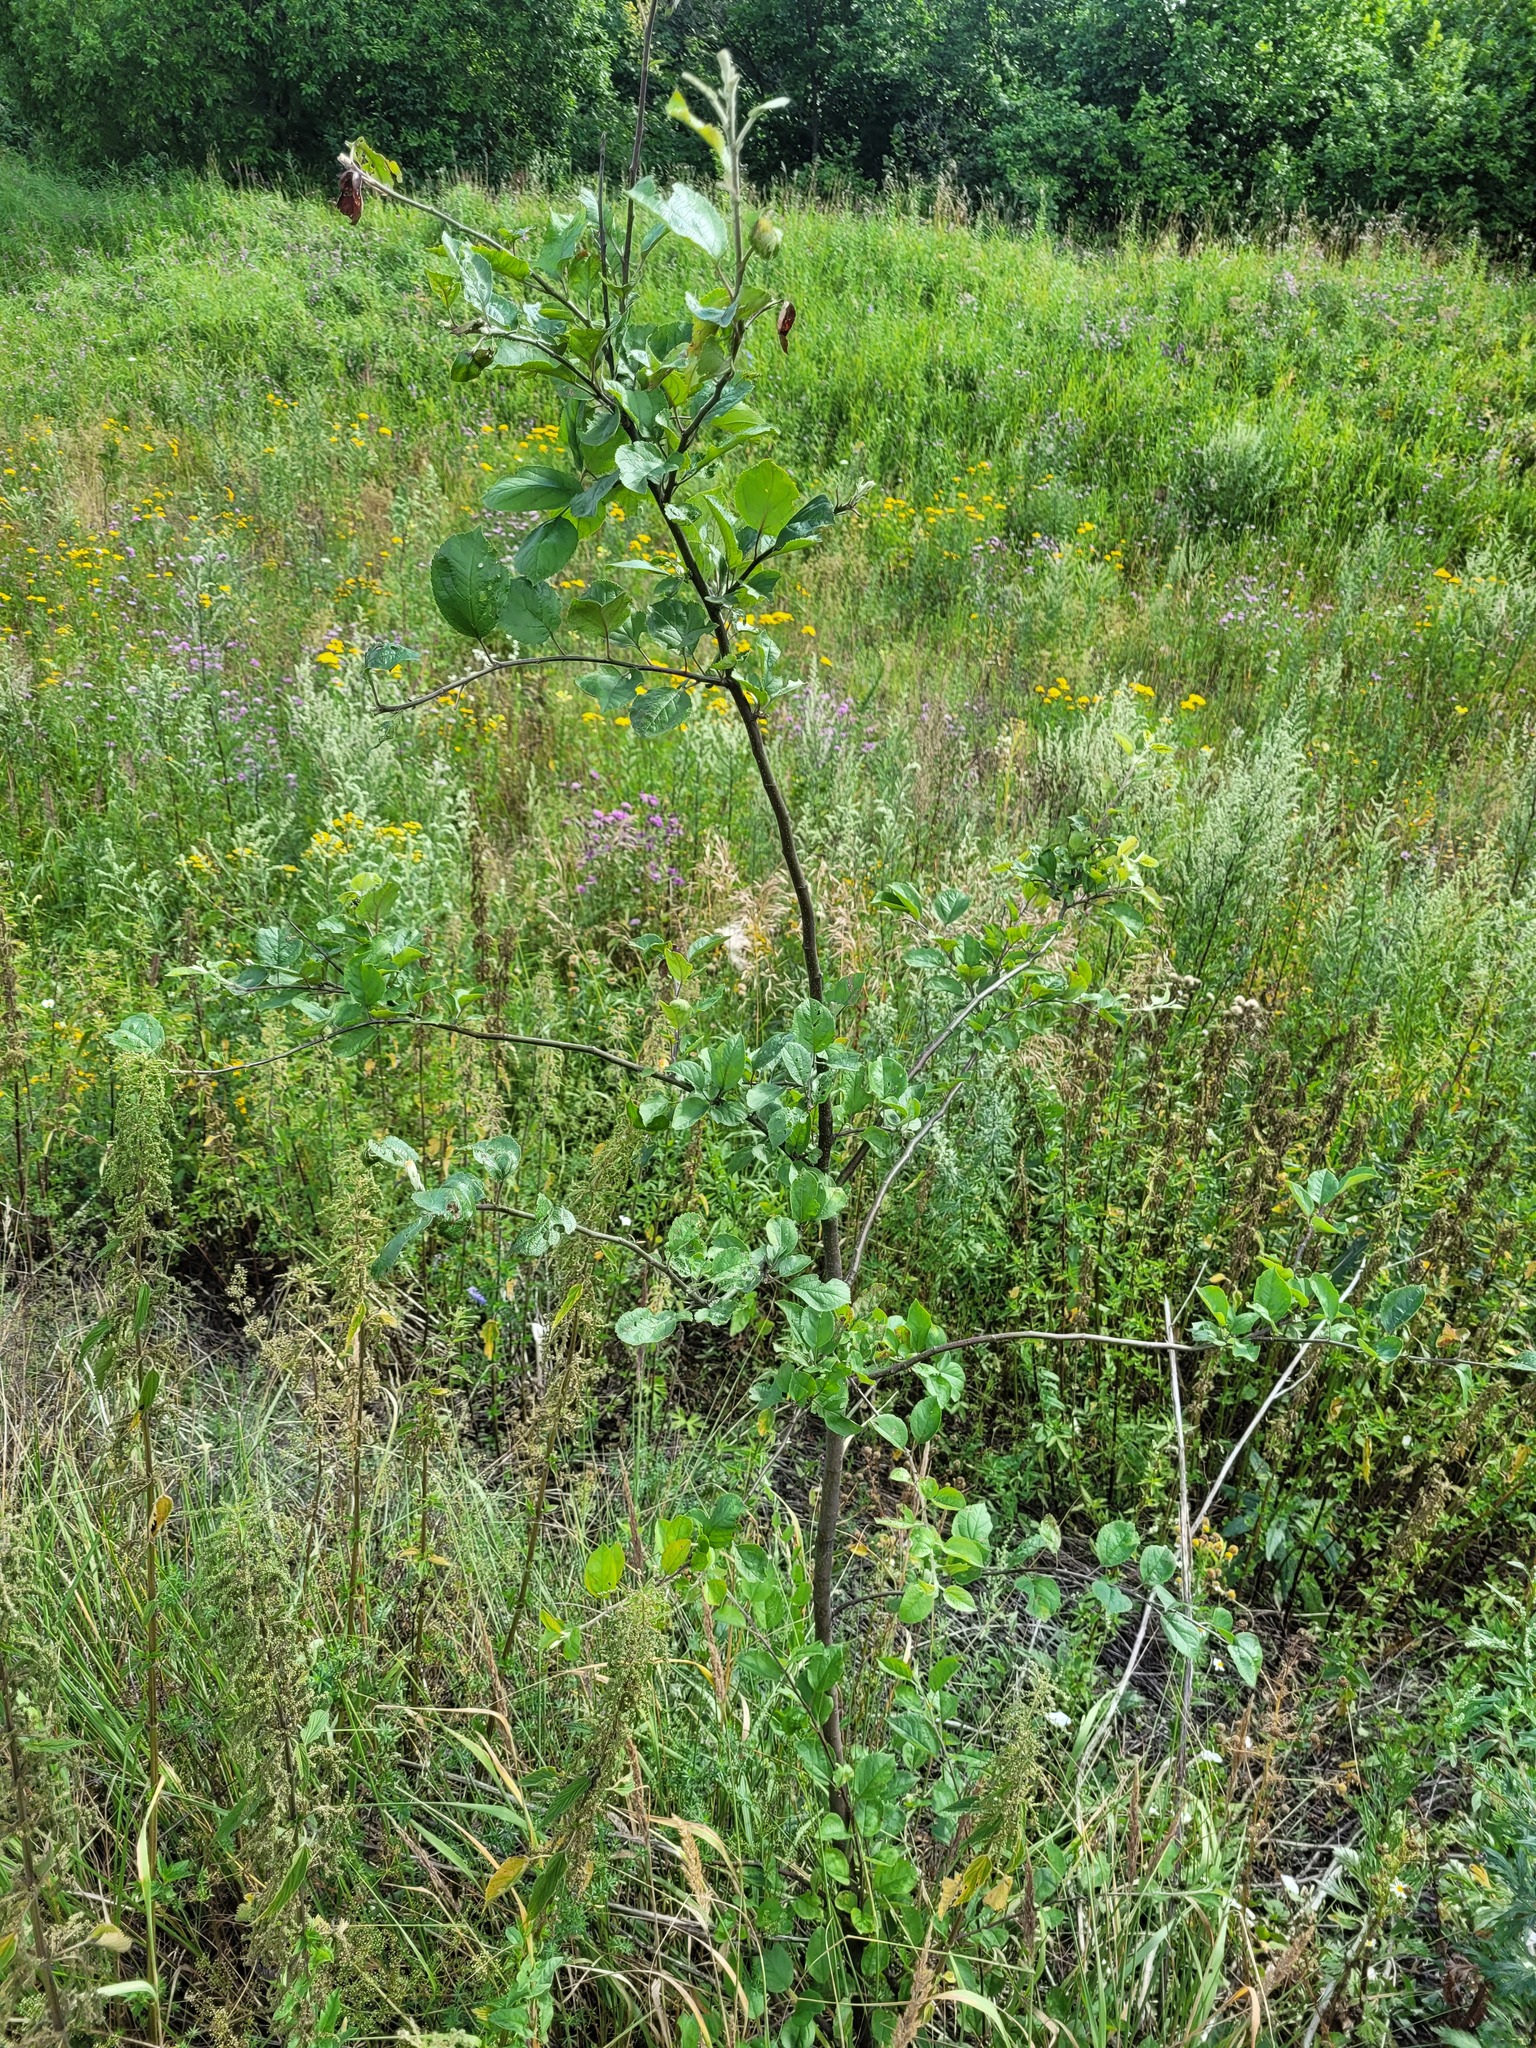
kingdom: Plantae
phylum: Tracheophyta
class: Magnoliopsida
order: Rosales
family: Rosaceae
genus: Malus
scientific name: Malus domestica
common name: Apple
